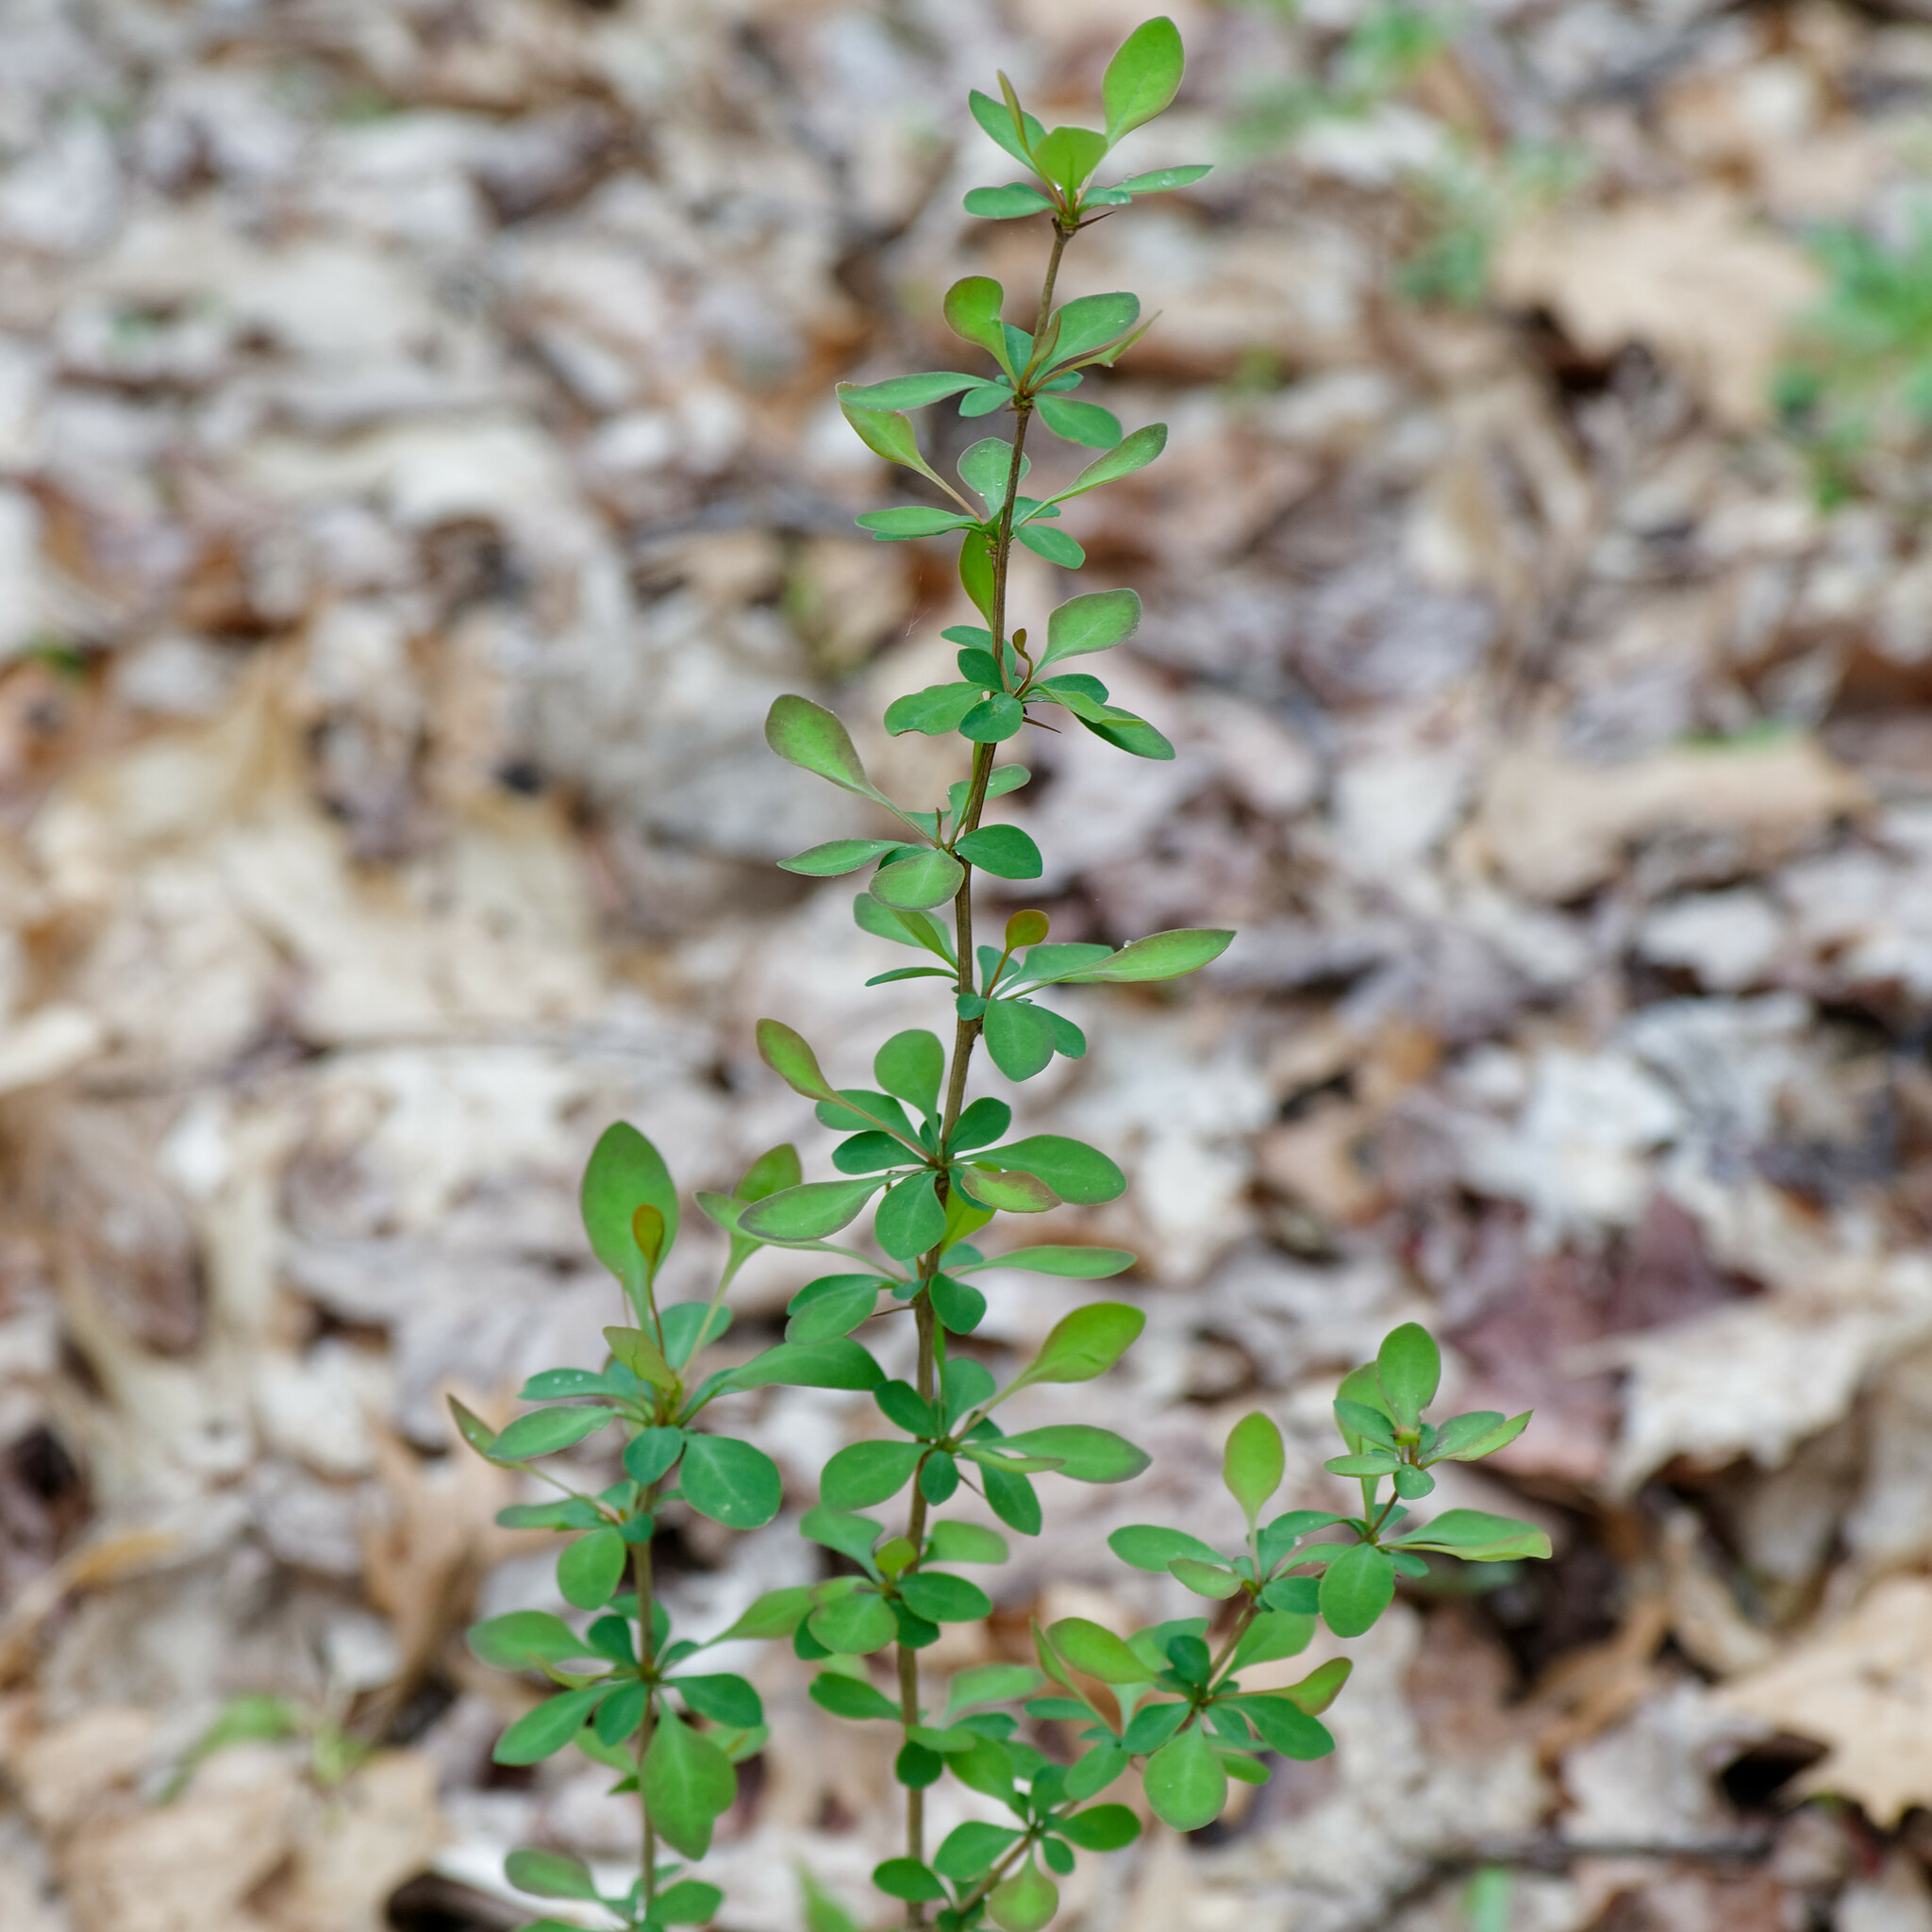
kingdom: Plantae
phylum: Tracheophyta
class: Magnoliopsida
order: Ranunculales
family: Berberidaceae
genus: Berberis
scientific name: Berberis thunbergii
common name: Japanese barberry
